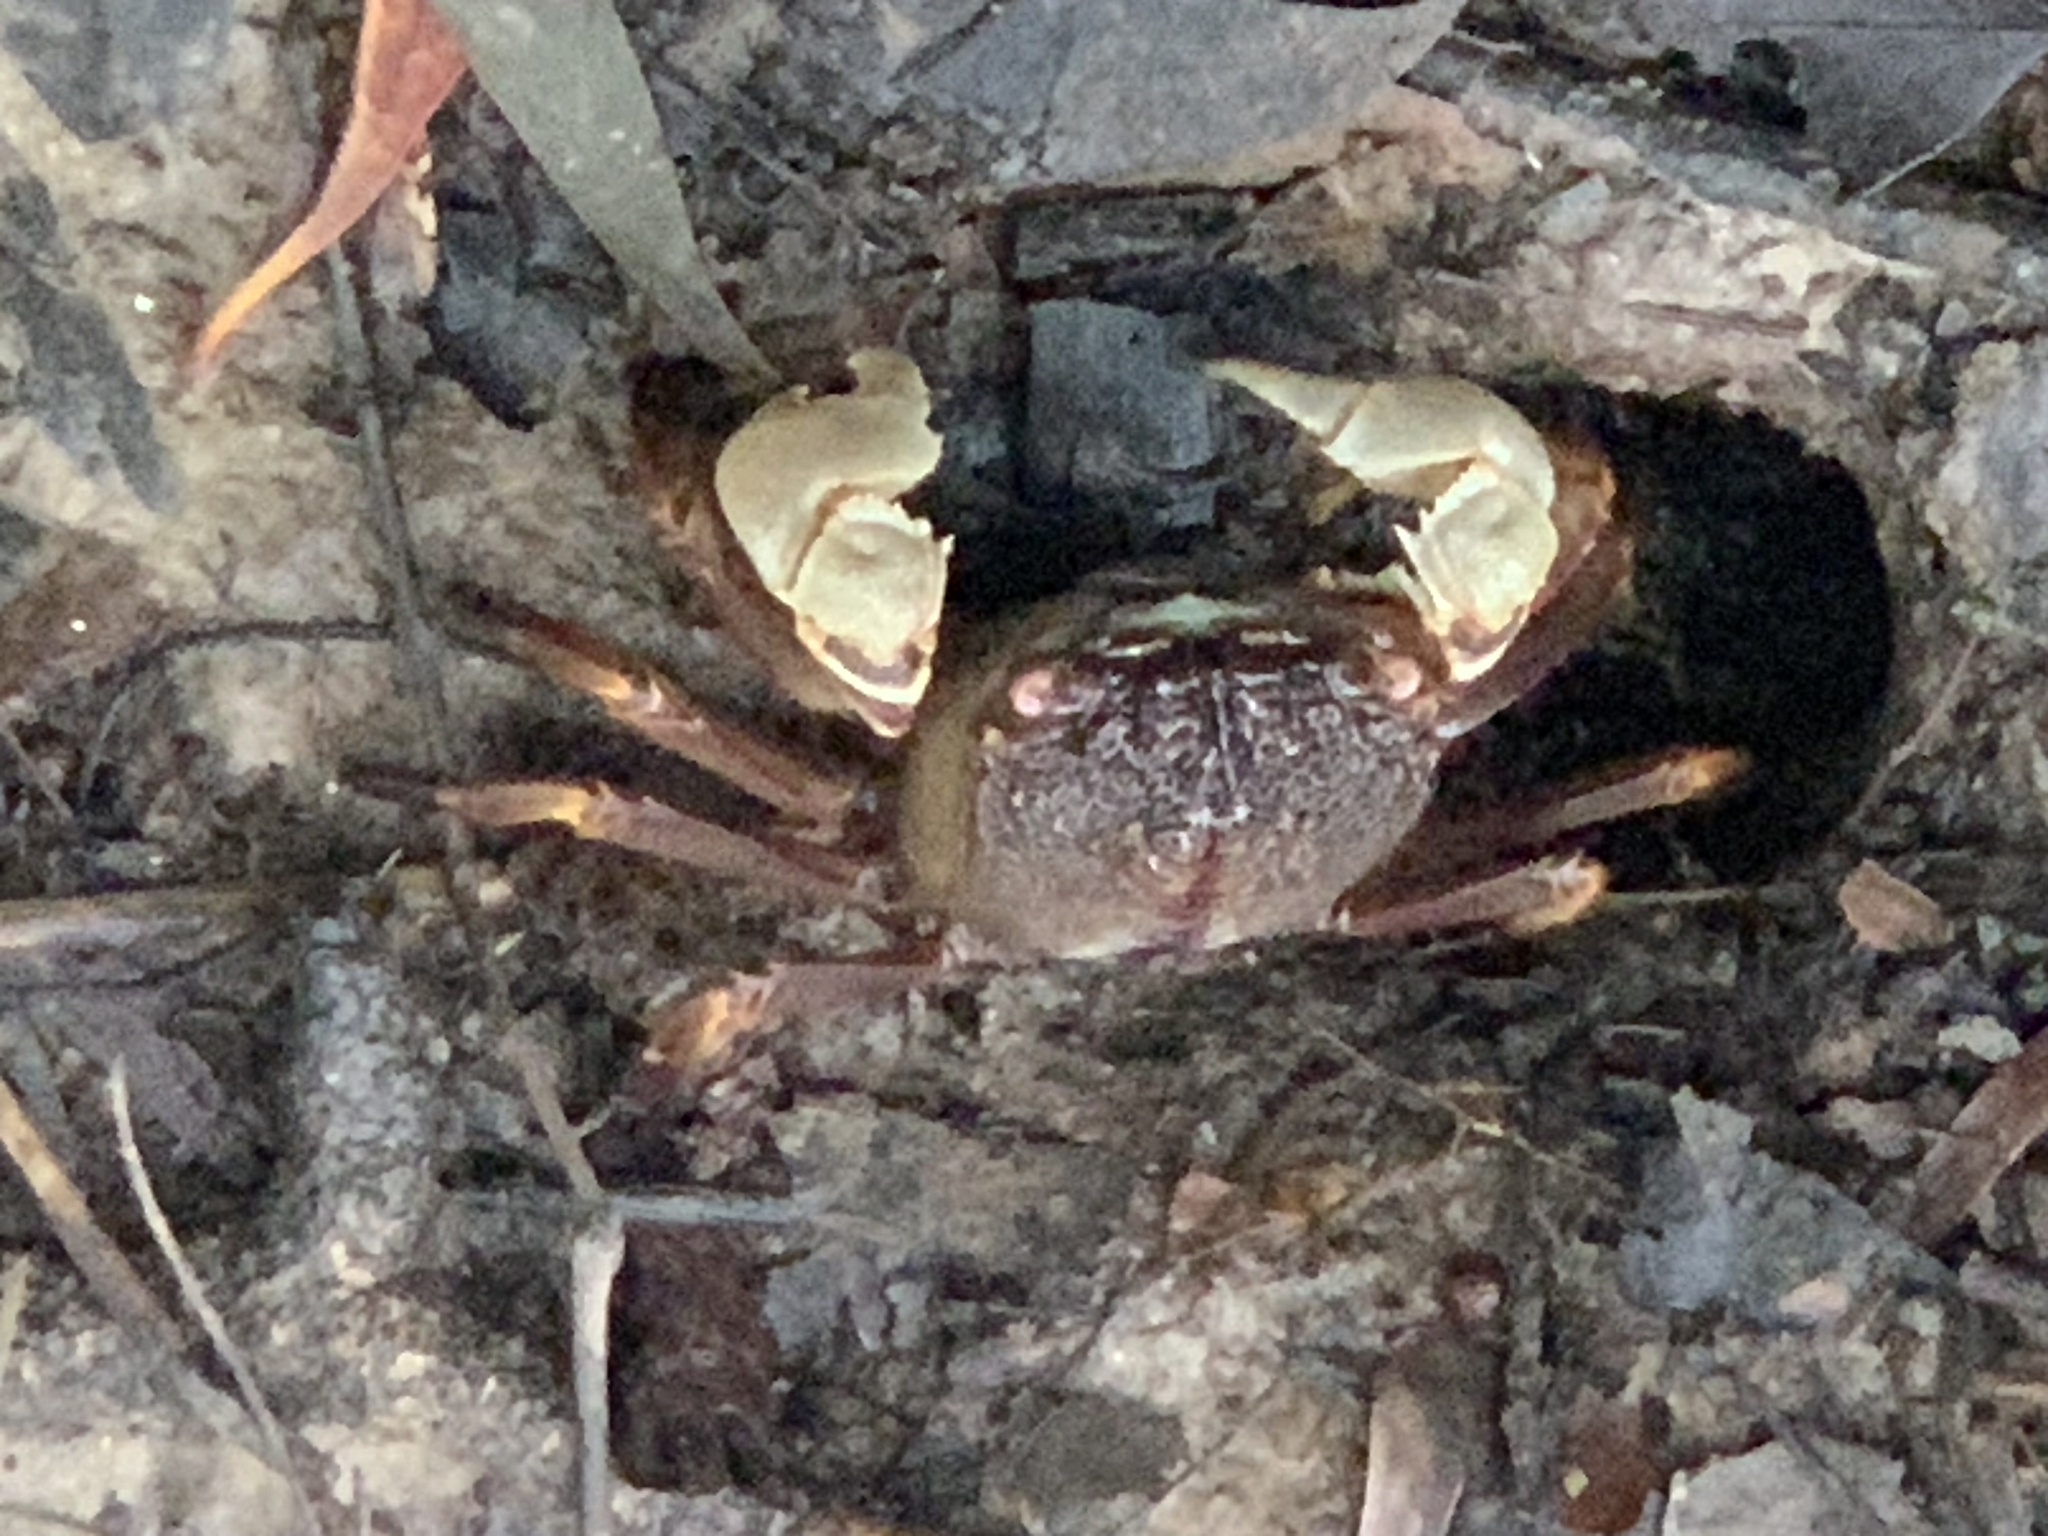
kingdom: Animalia
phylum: Arthropoda
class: Malacostraca
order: Decapoda
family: Sesarmidae
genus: Tiomanium
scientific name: Tiomanium indicum
